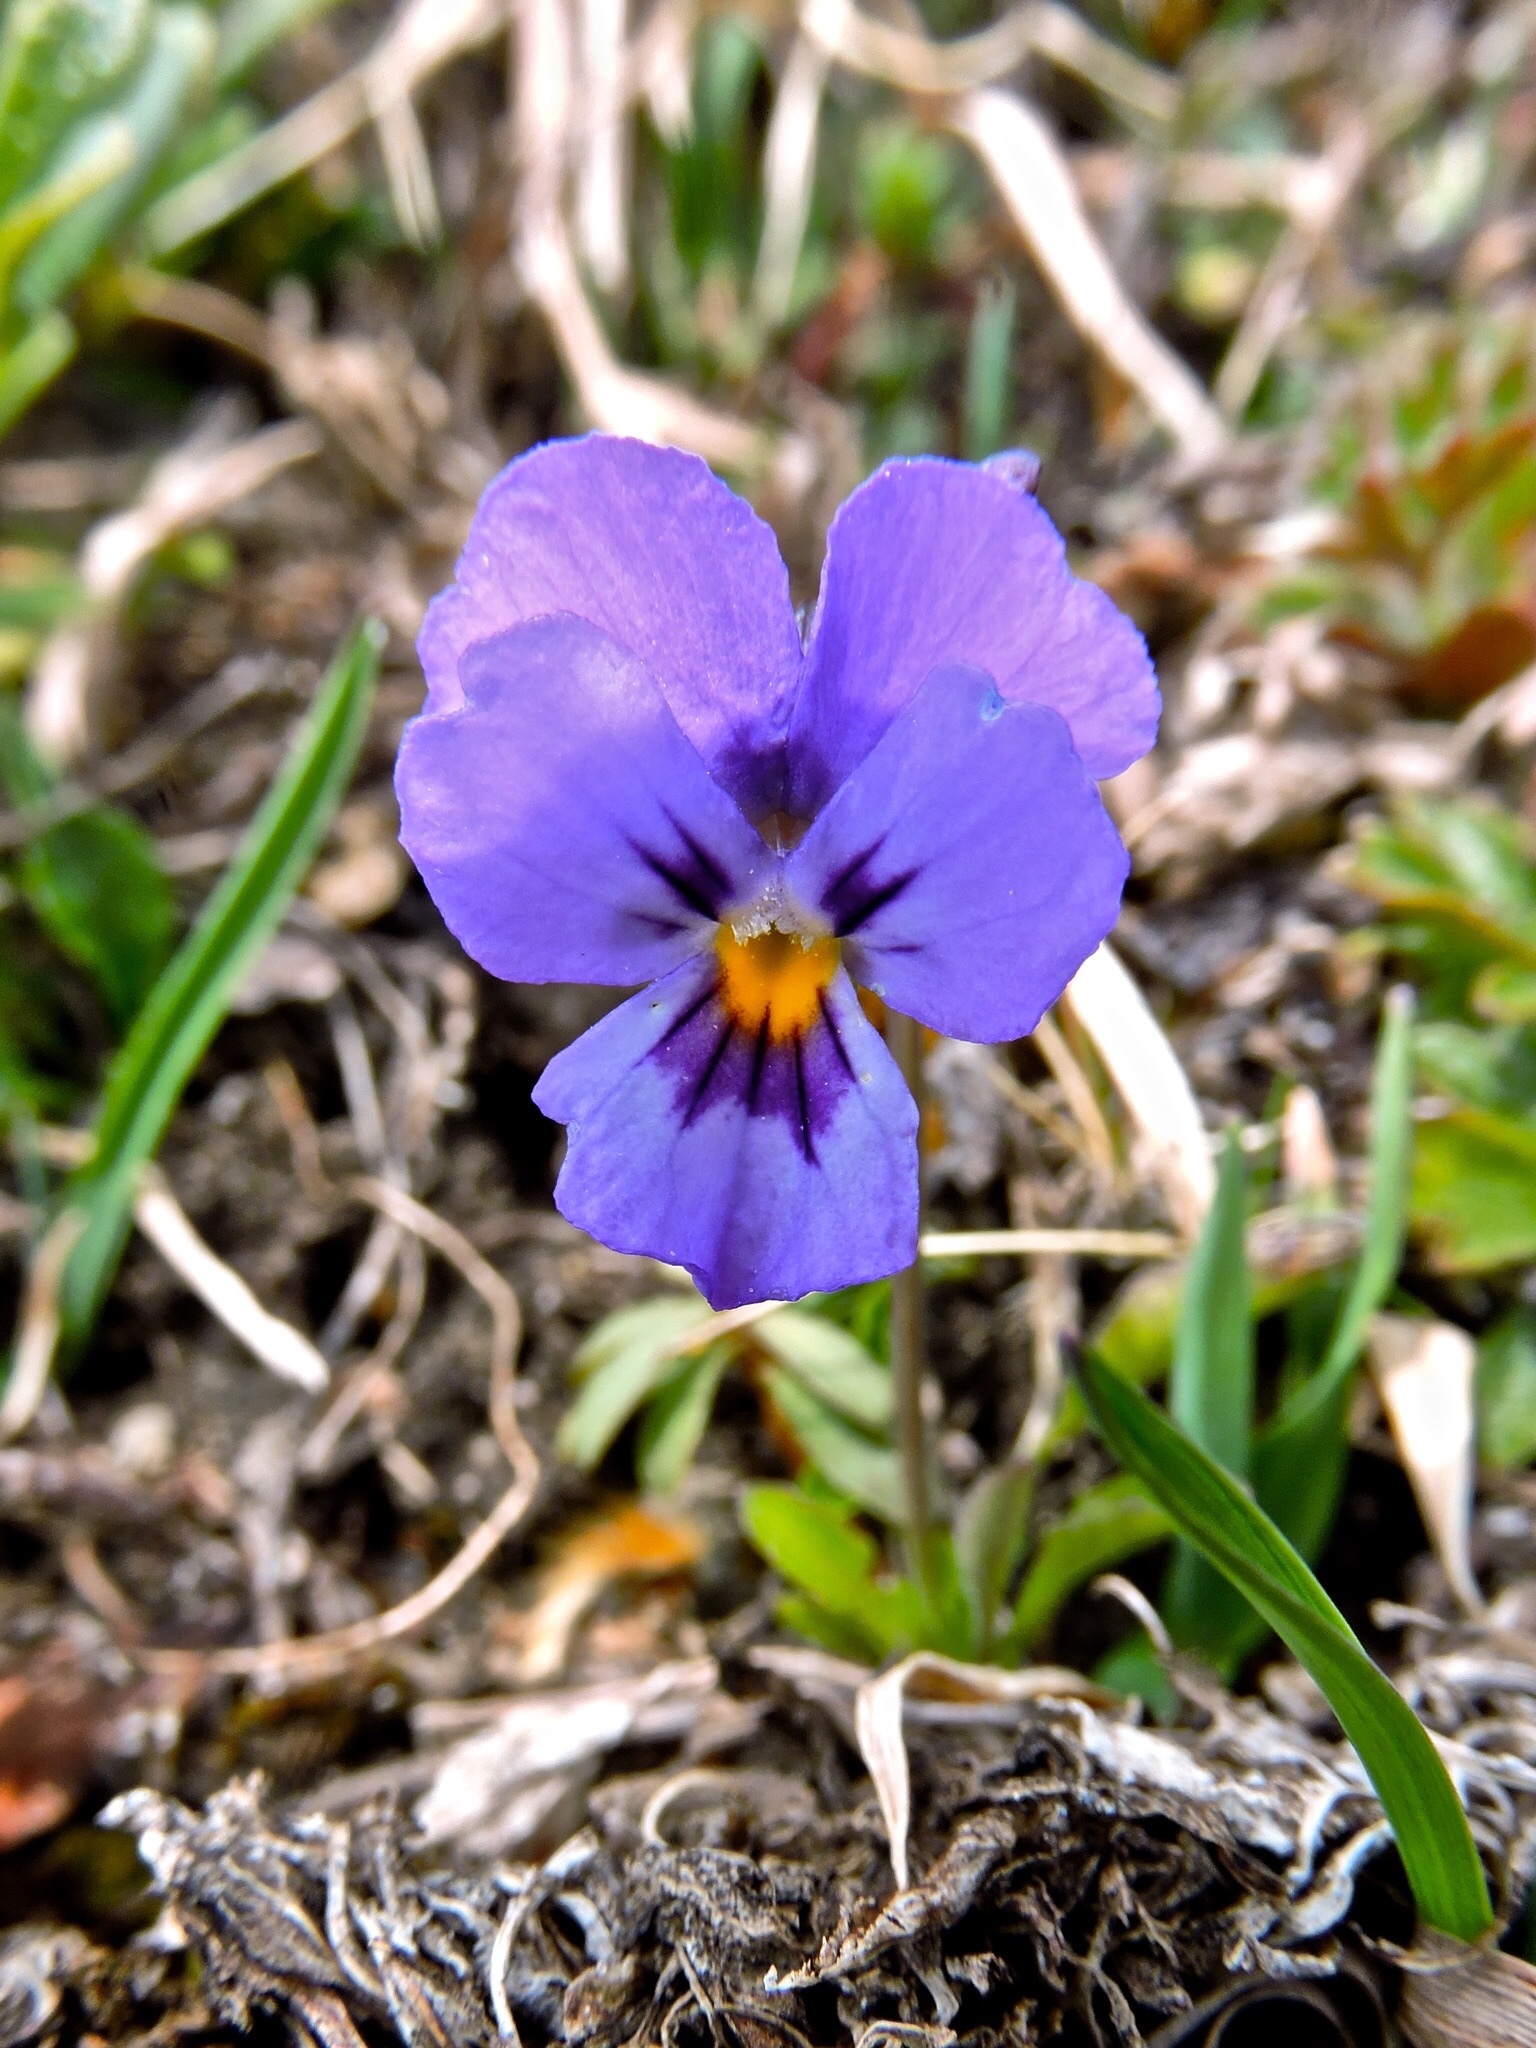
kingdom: Plantae
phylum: Tracheophyta
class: Magnoliopsida
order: Malpighiales
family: Violaceae
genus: Viola
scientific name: Viola calcarata
